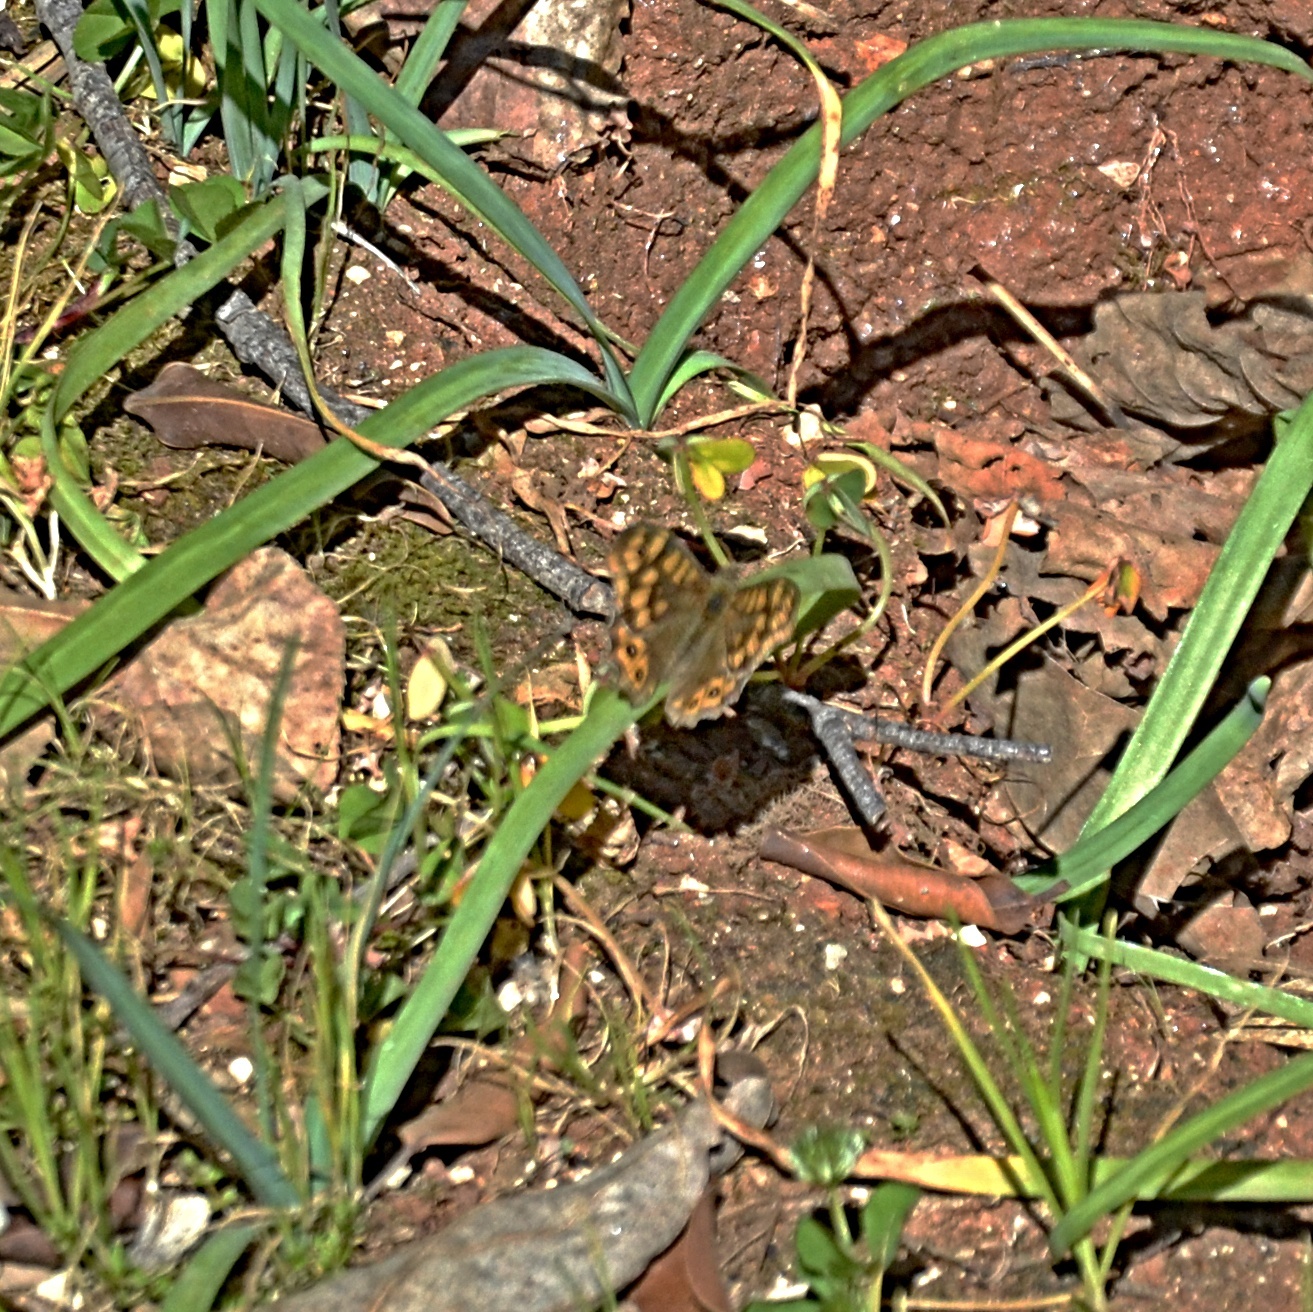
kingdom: Animalia
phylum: Arthropoda
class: Insecta
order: Lepidoptera
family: Nymphalidae
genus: Pararge
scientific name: Pararge aegeria
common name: Speckled wood
